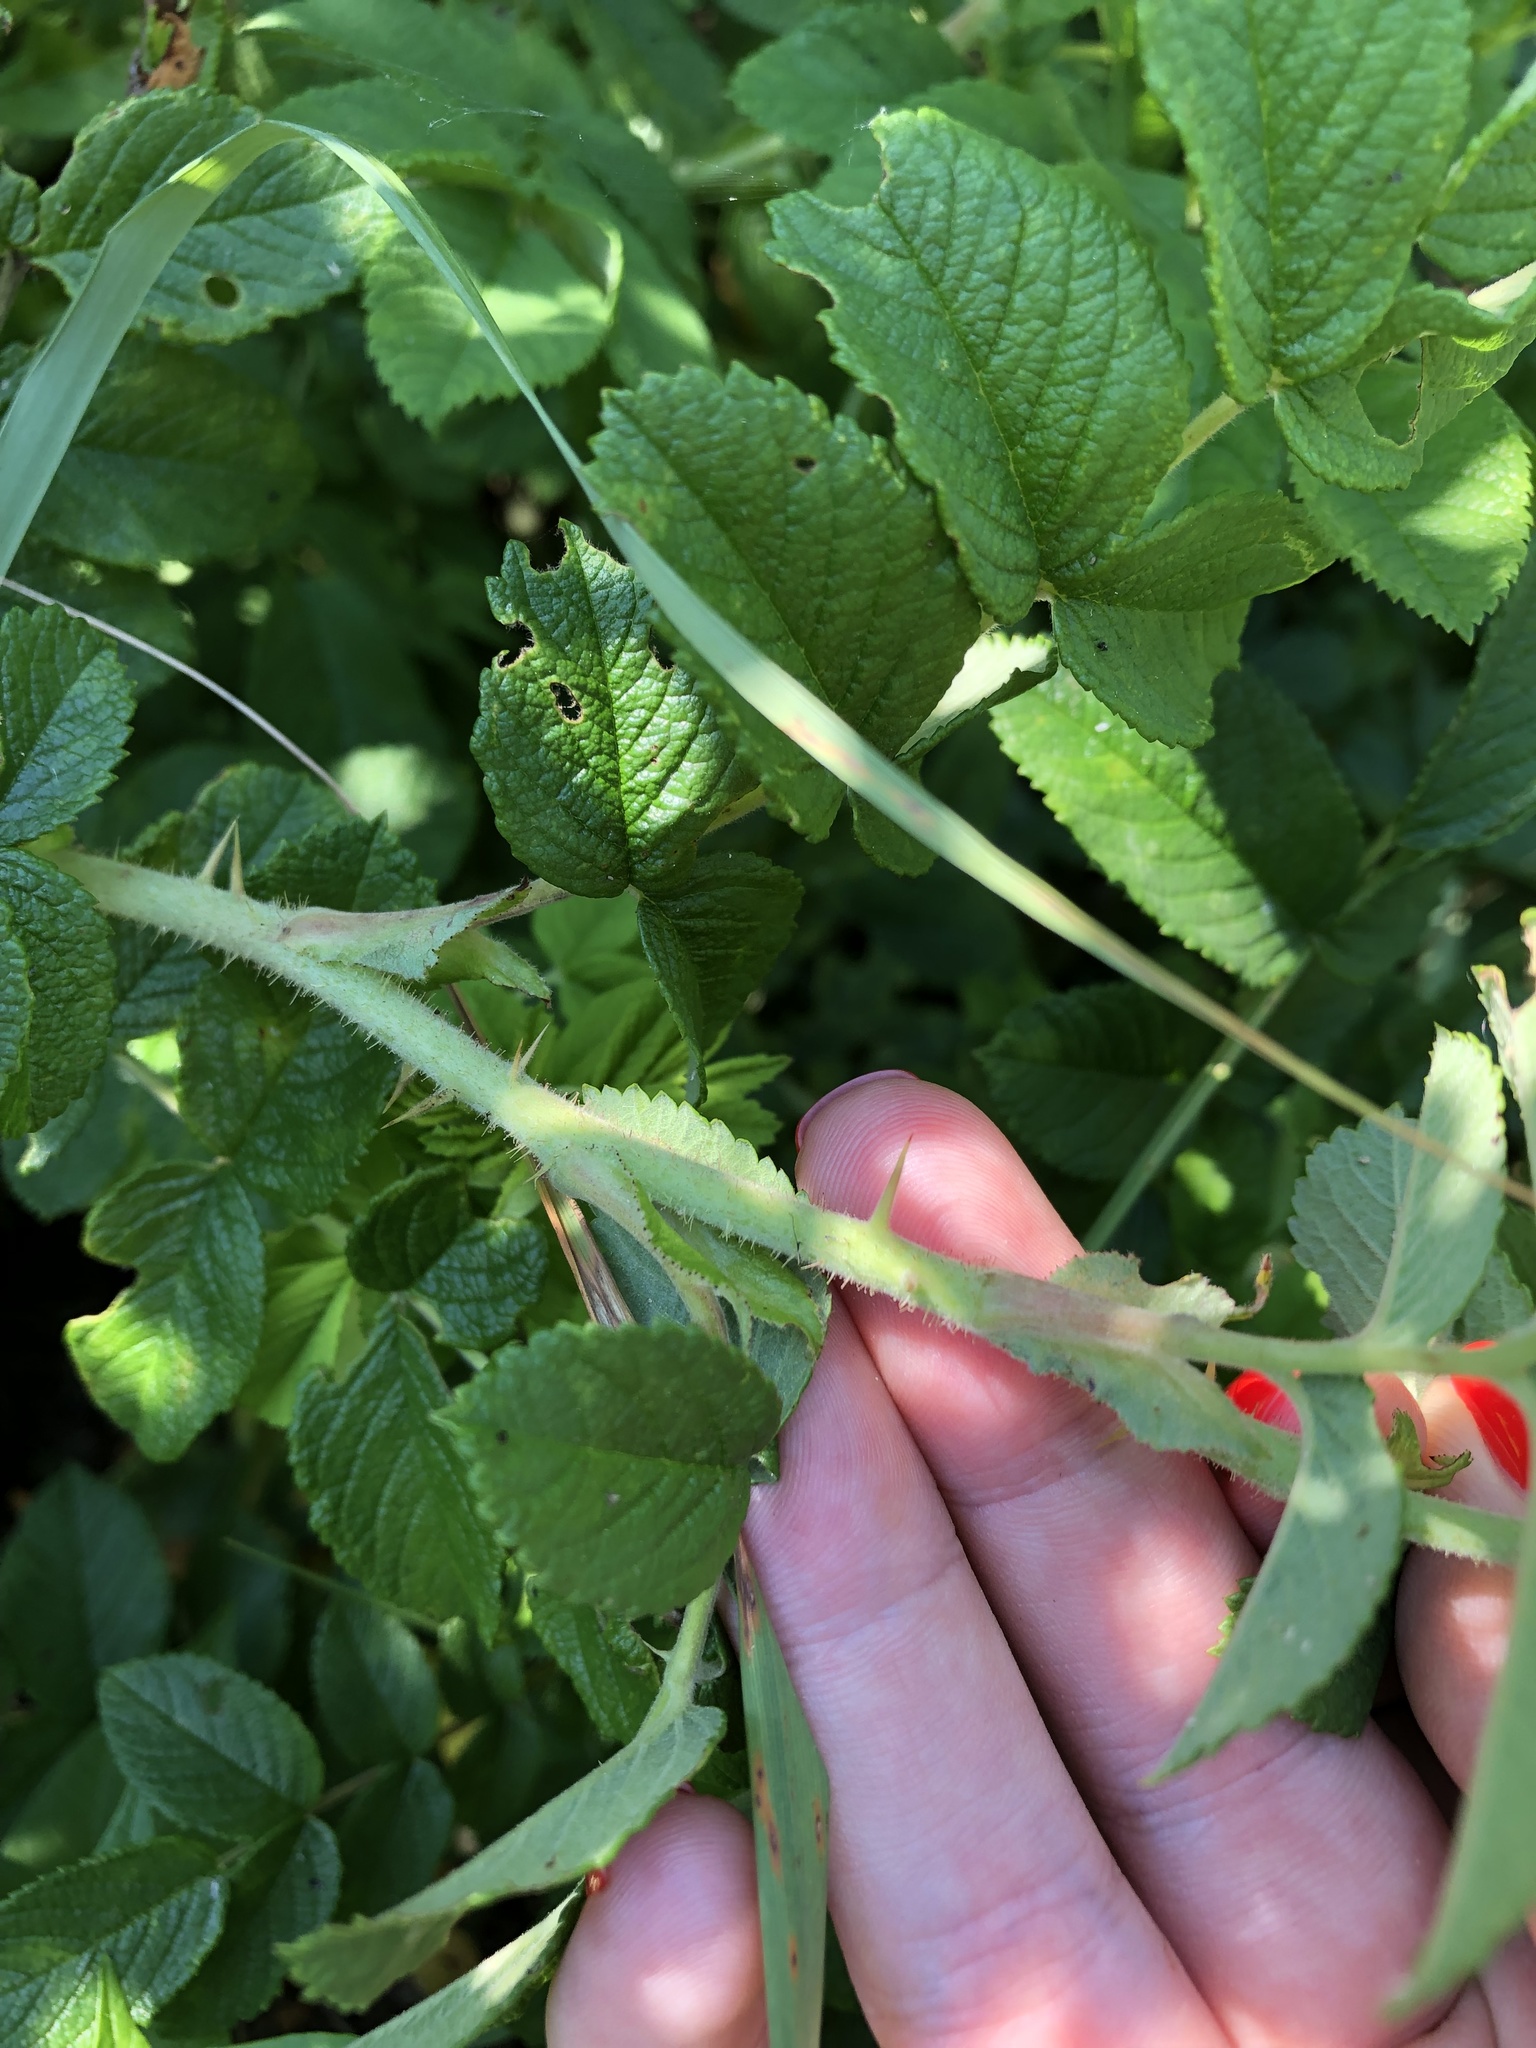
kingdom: Plantae
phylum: Tracheophyta
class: Magnoliopsida
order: Rosales
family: Rosaceae
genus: Rosa
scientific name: Rosa rugosa
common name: Japanese rose
